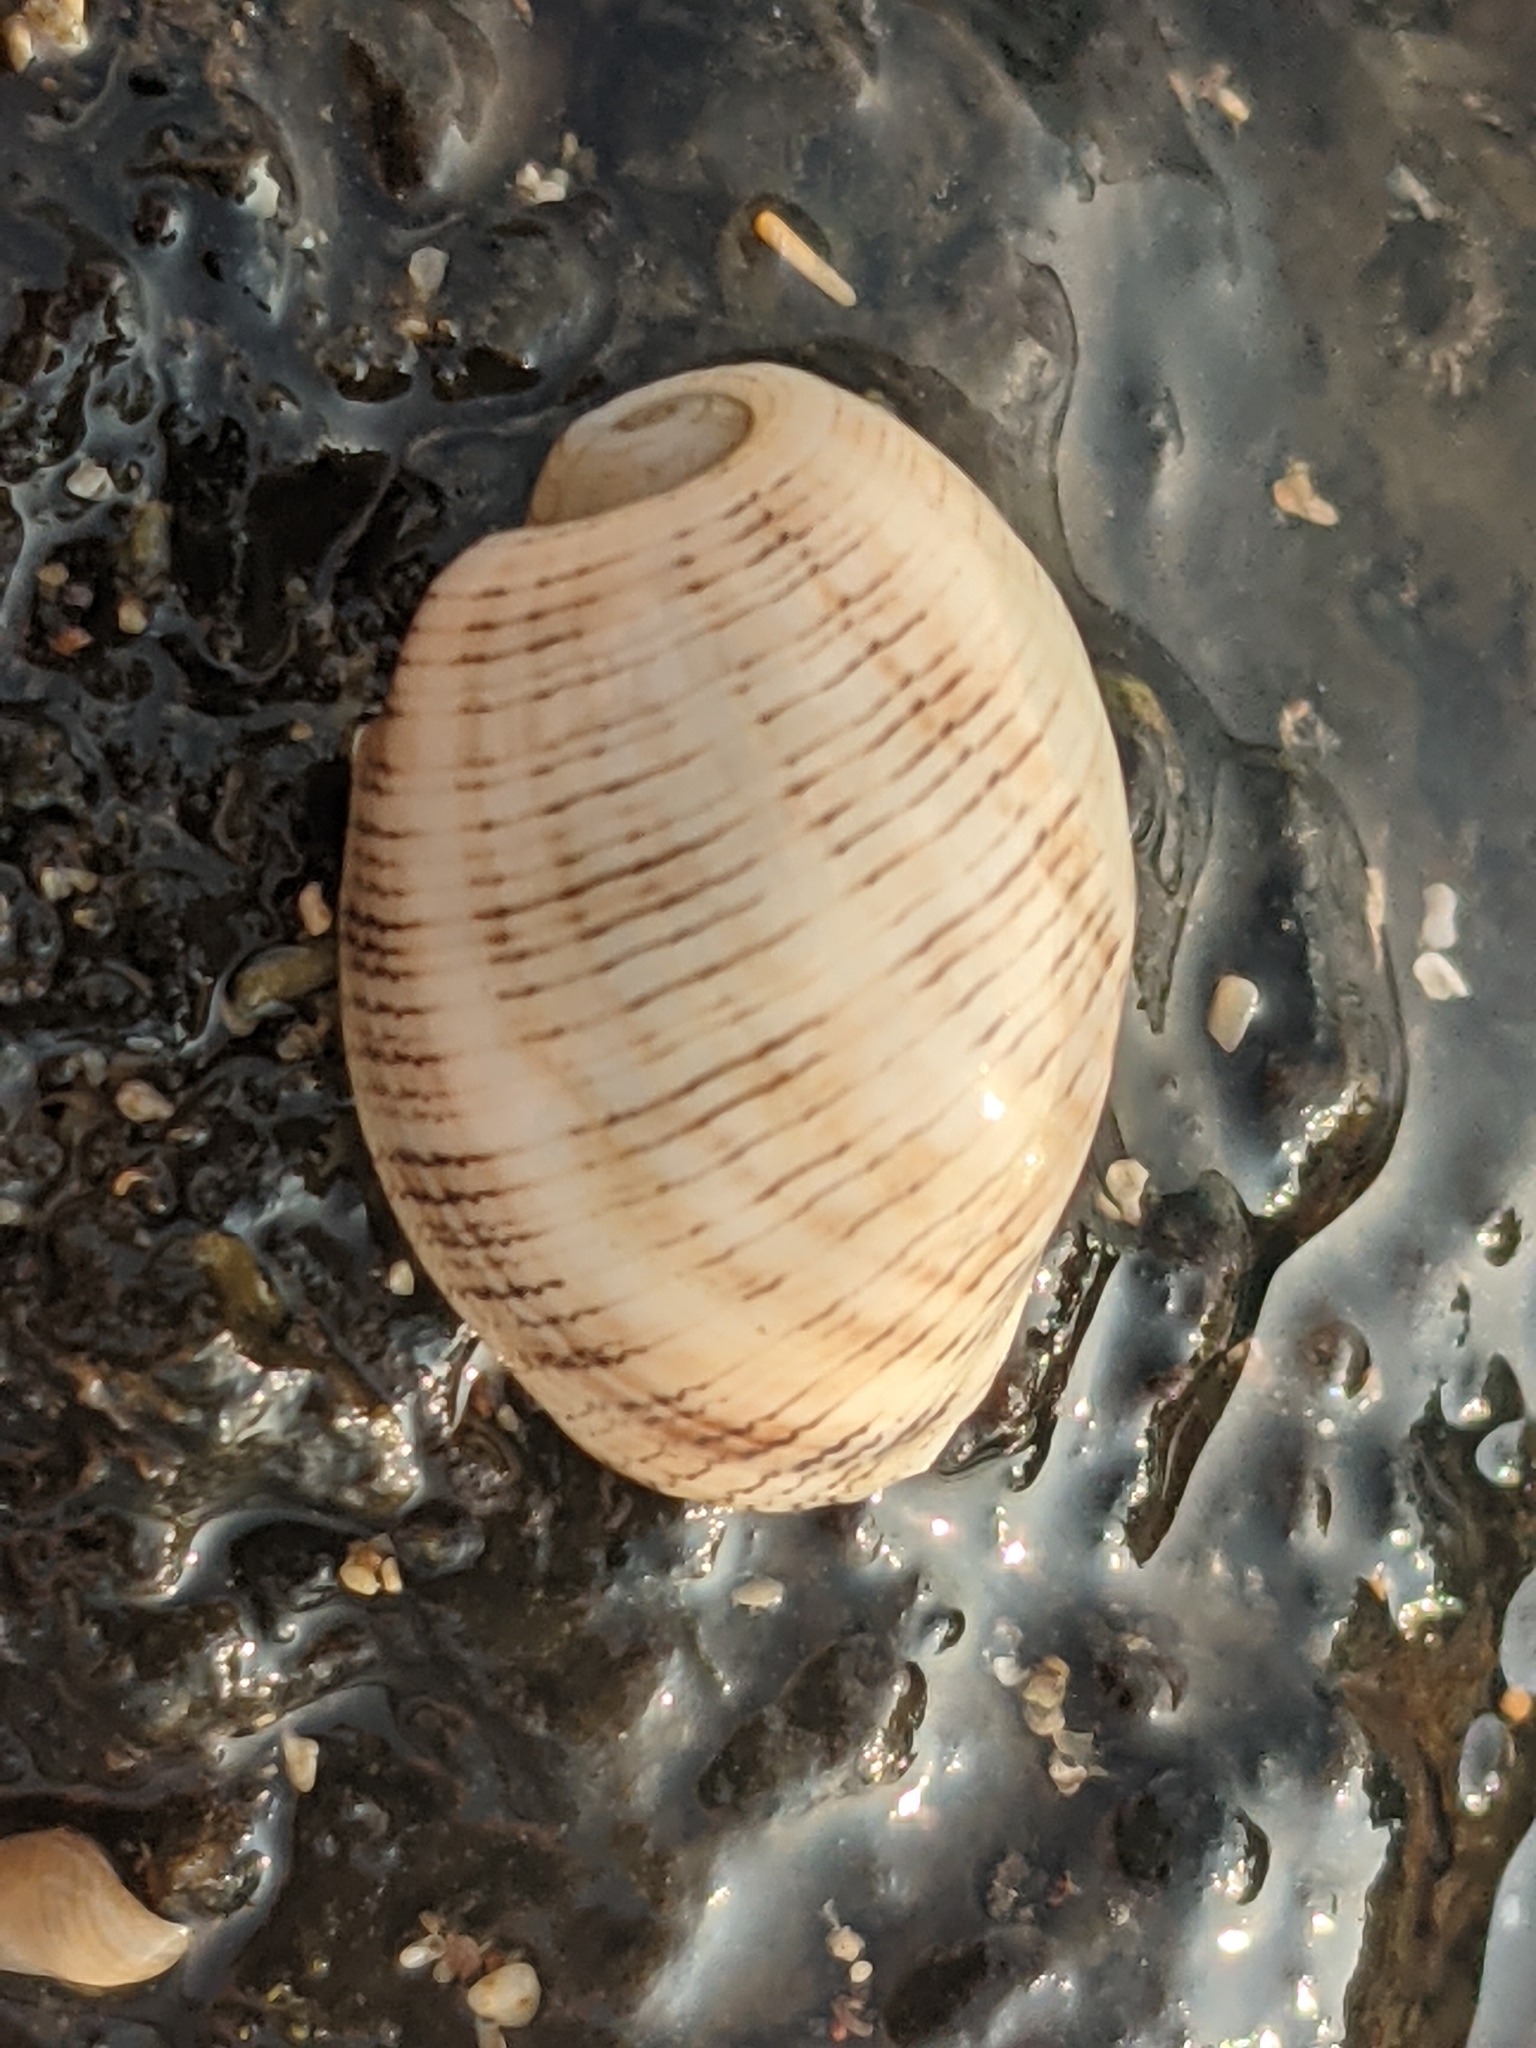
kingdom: Animalia
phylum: Mollusca
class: Gastropoda
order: Cephalaspidea
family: Aplustridae
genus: Hydatina
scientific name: Hydatina physis
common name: Brown-line paperbubble
